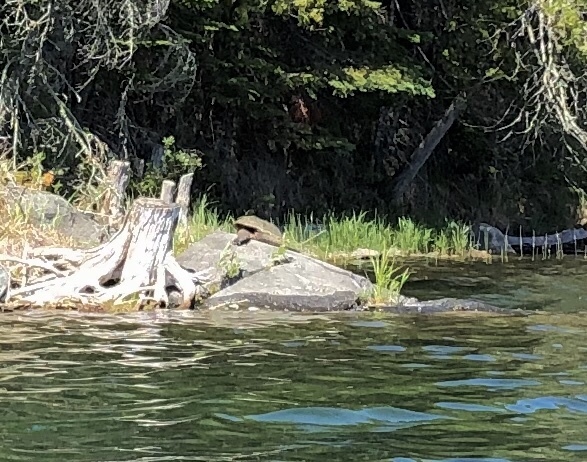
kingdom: Animalia
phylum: Chordata
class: Testudines
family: Chelydridae
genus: Chelydra
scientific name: Chelydra serpentina
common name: Common snapping turtle
